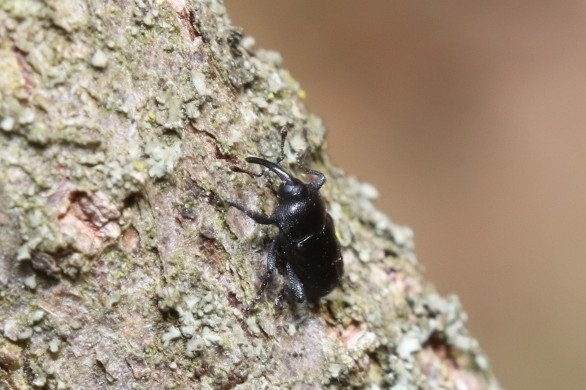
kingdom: Animalia
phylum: Arthropoda
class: Insecta
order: Coleoptera
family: Curculionidae
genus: Madarellus
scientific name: Madarellus undulatus
